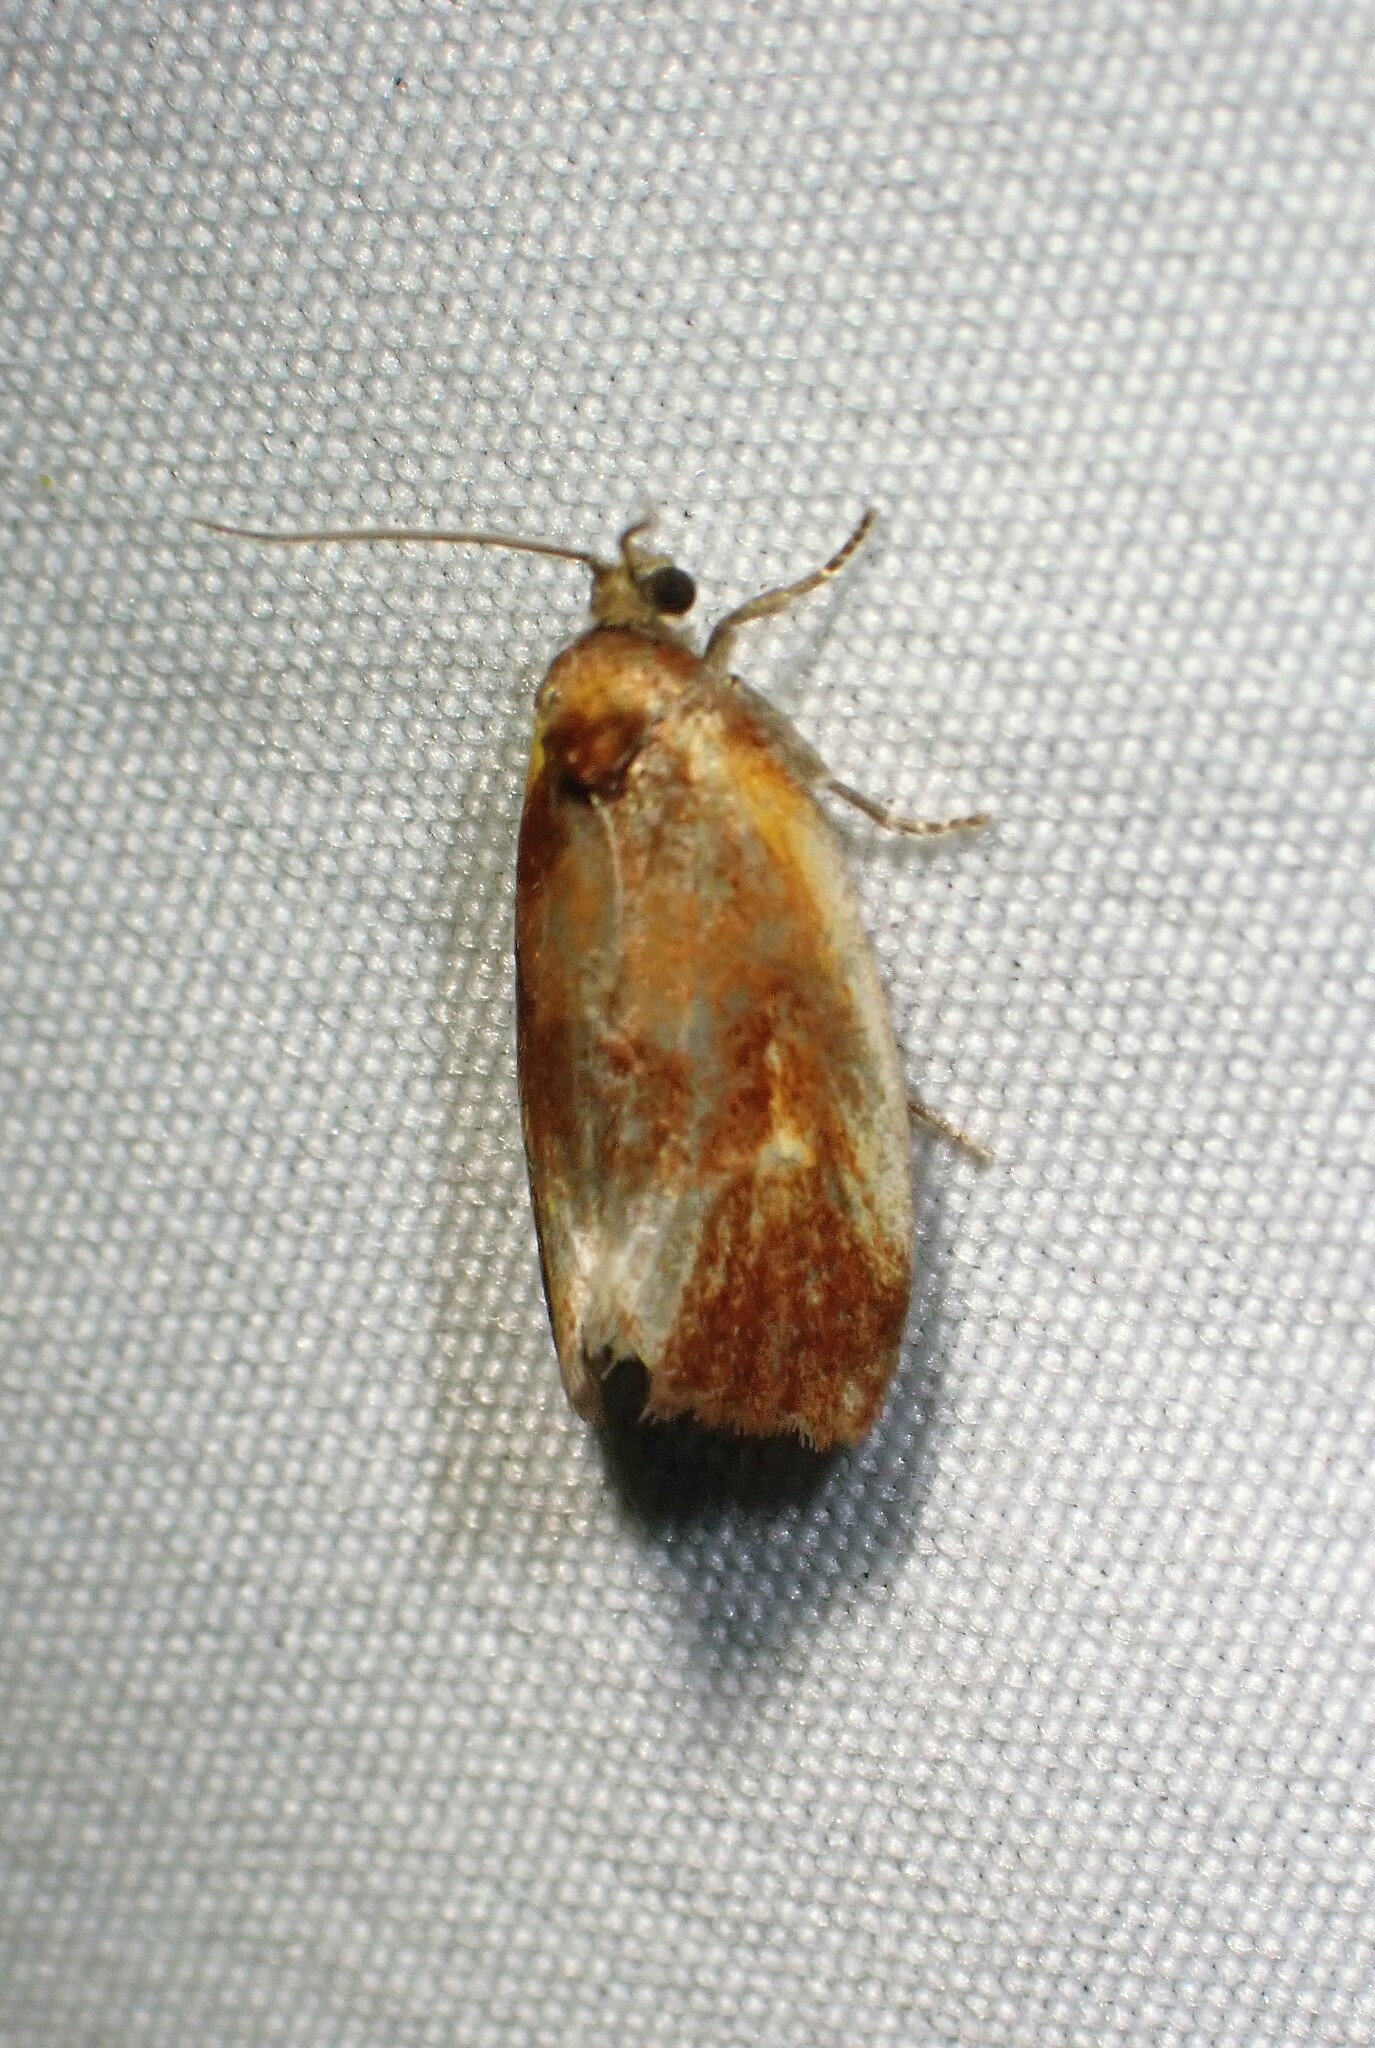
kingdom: Animalia
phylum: Arthropoda
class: Insecta
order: Lepidoptera
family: Tortricidae
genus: Eulia
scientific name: Eulia ministrana
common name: Brassy twist
